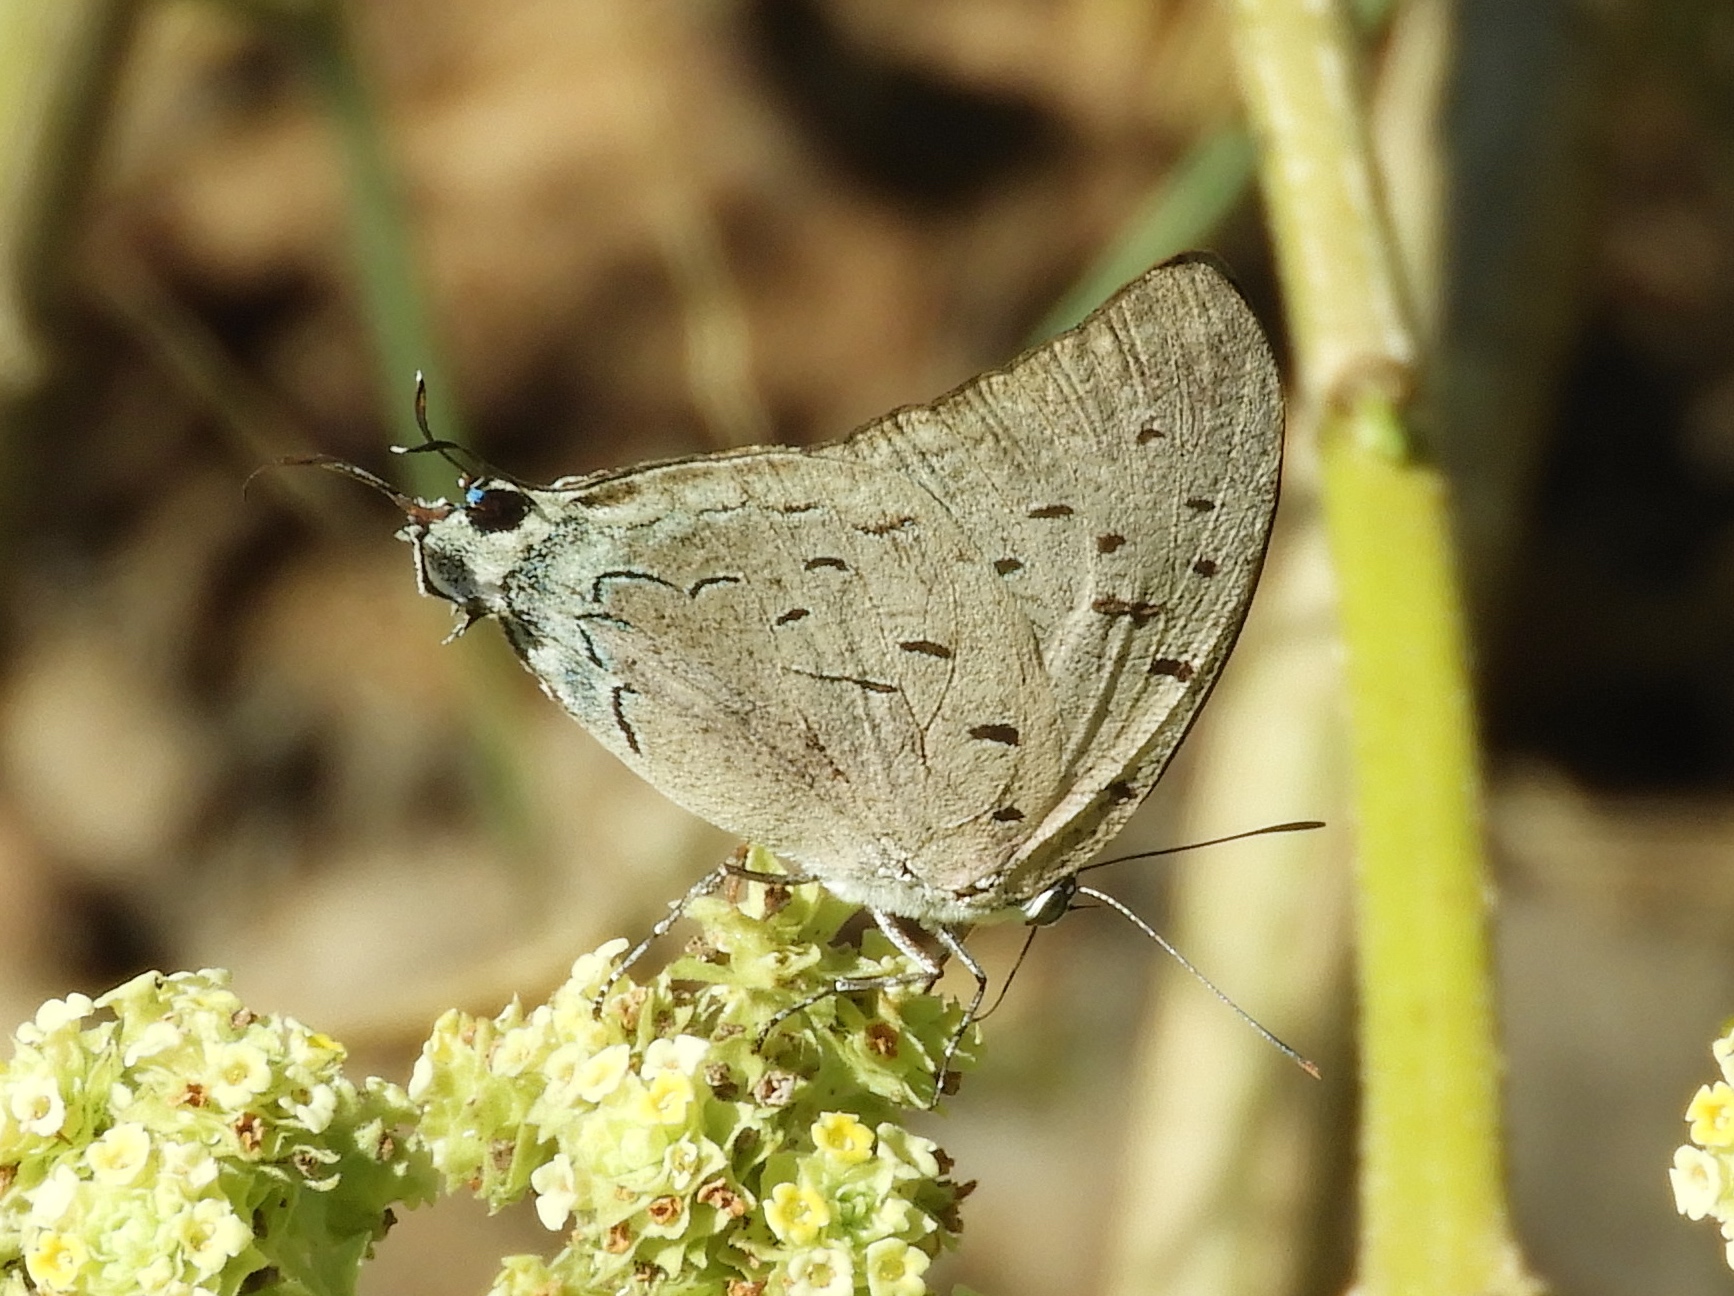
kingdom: Animalia
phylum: Arthropoda
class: Insecta
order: Lepidoptera
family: Lycaenidae
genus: Pseudolycaena
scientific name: Pseudolycaena damo
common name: Sky-blue hairstreak
